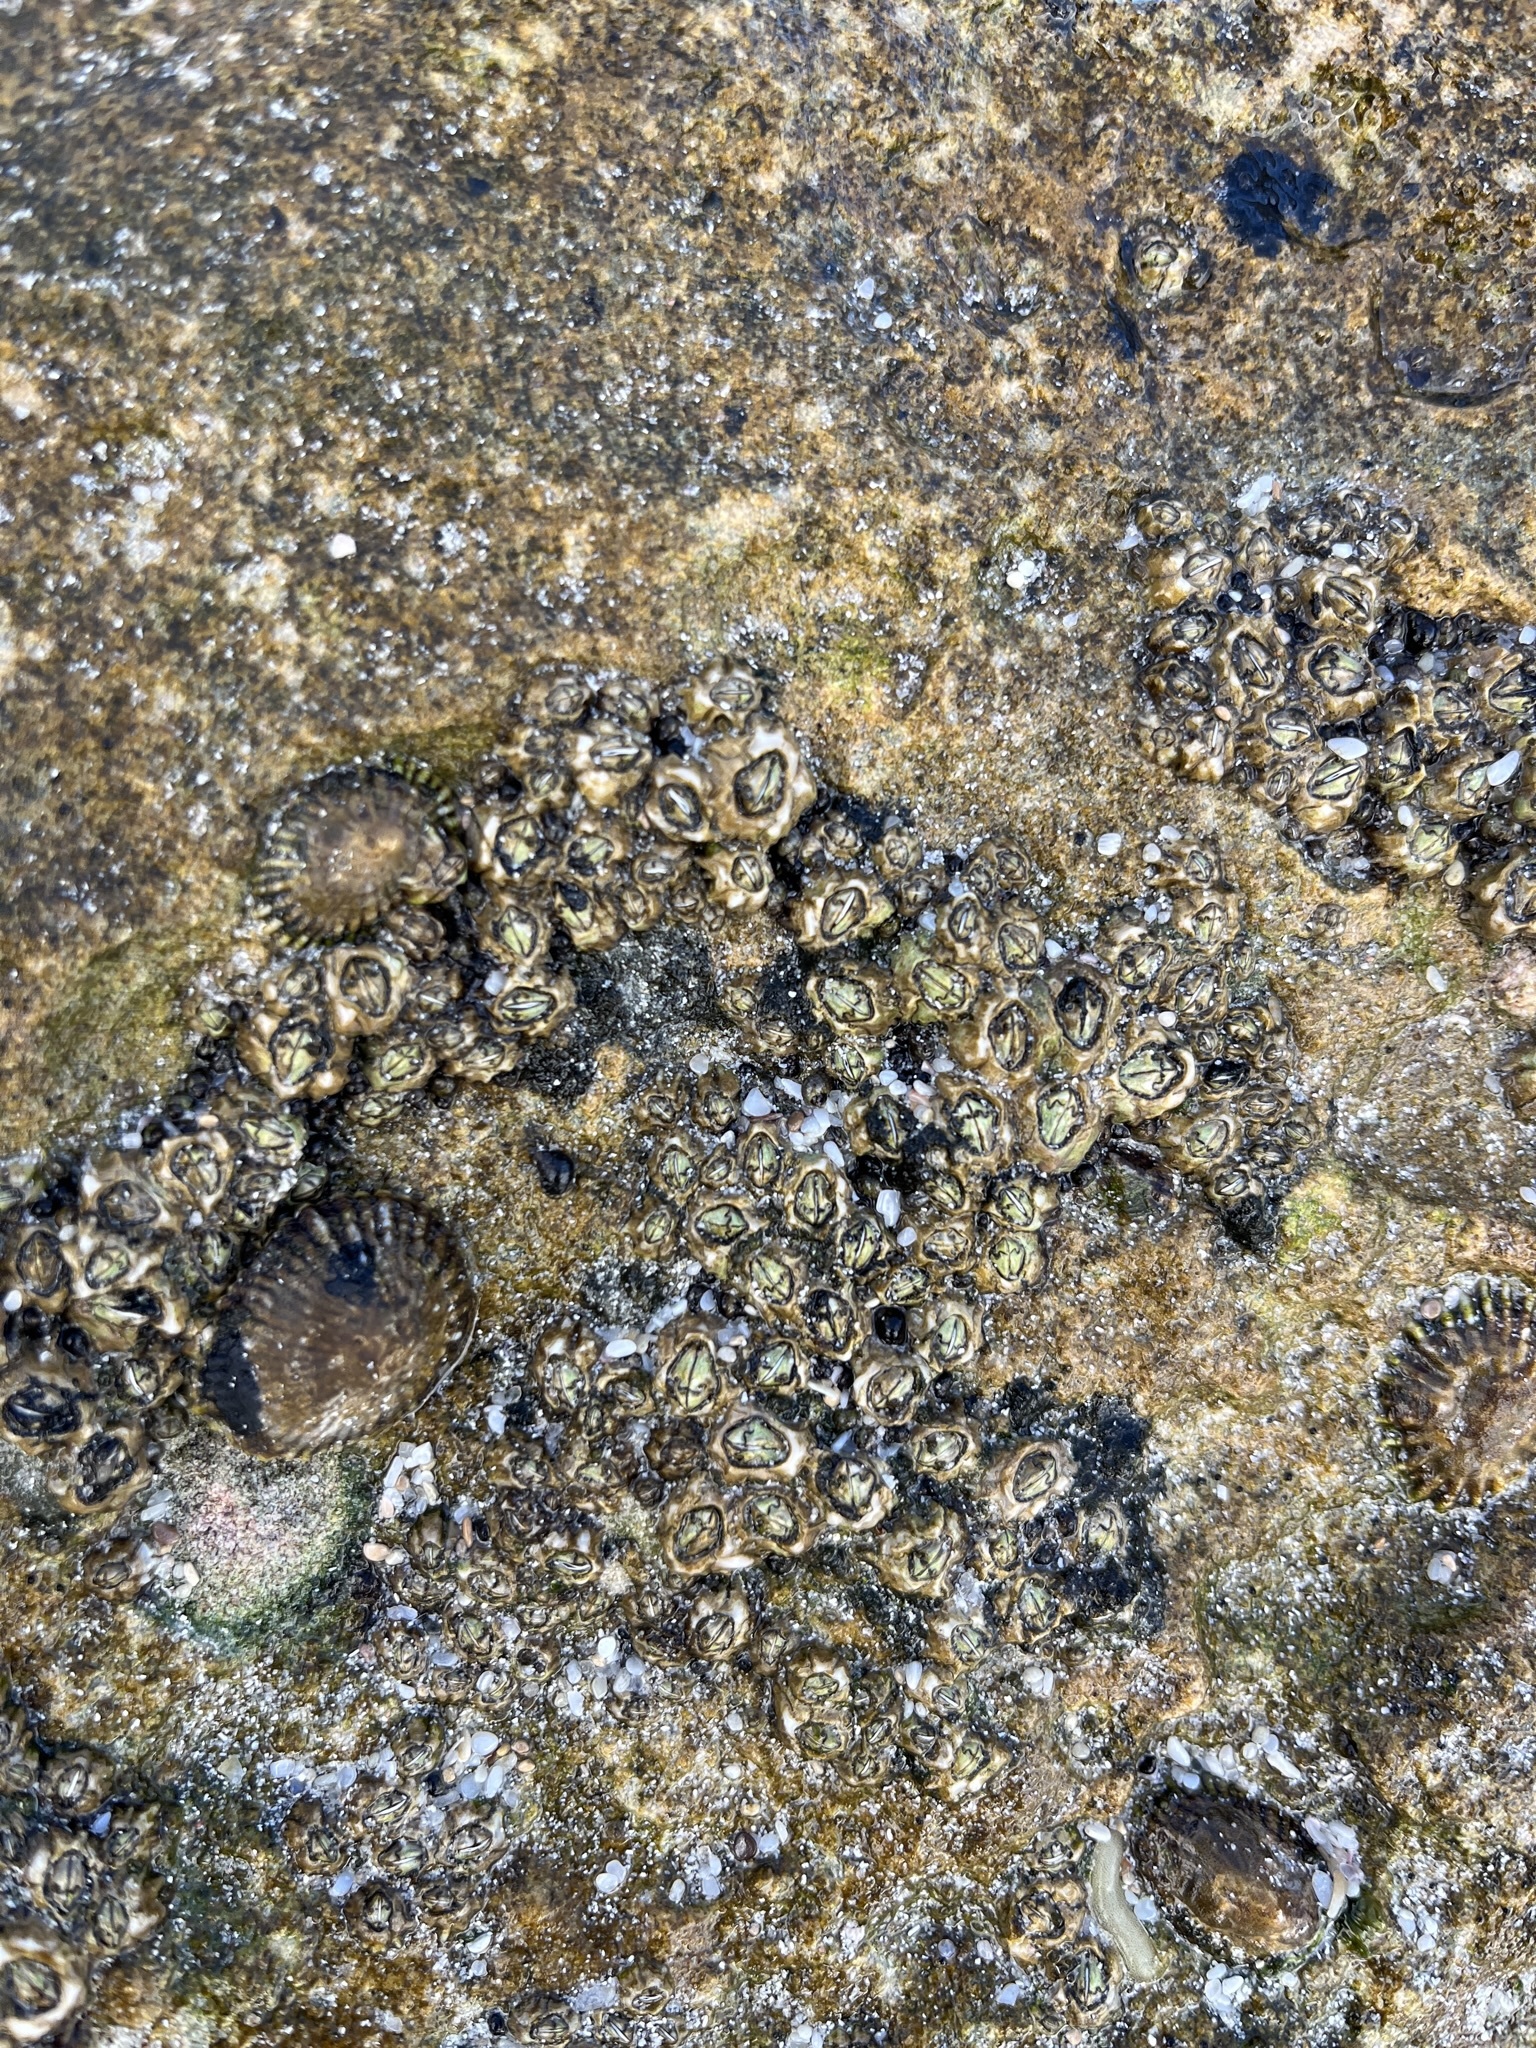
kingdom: Animalia
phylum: Arthropoda
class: Maxillopoda
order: Sessilia
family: Chthamalidae
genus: Octomeris
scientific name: Octomeris angulosa
